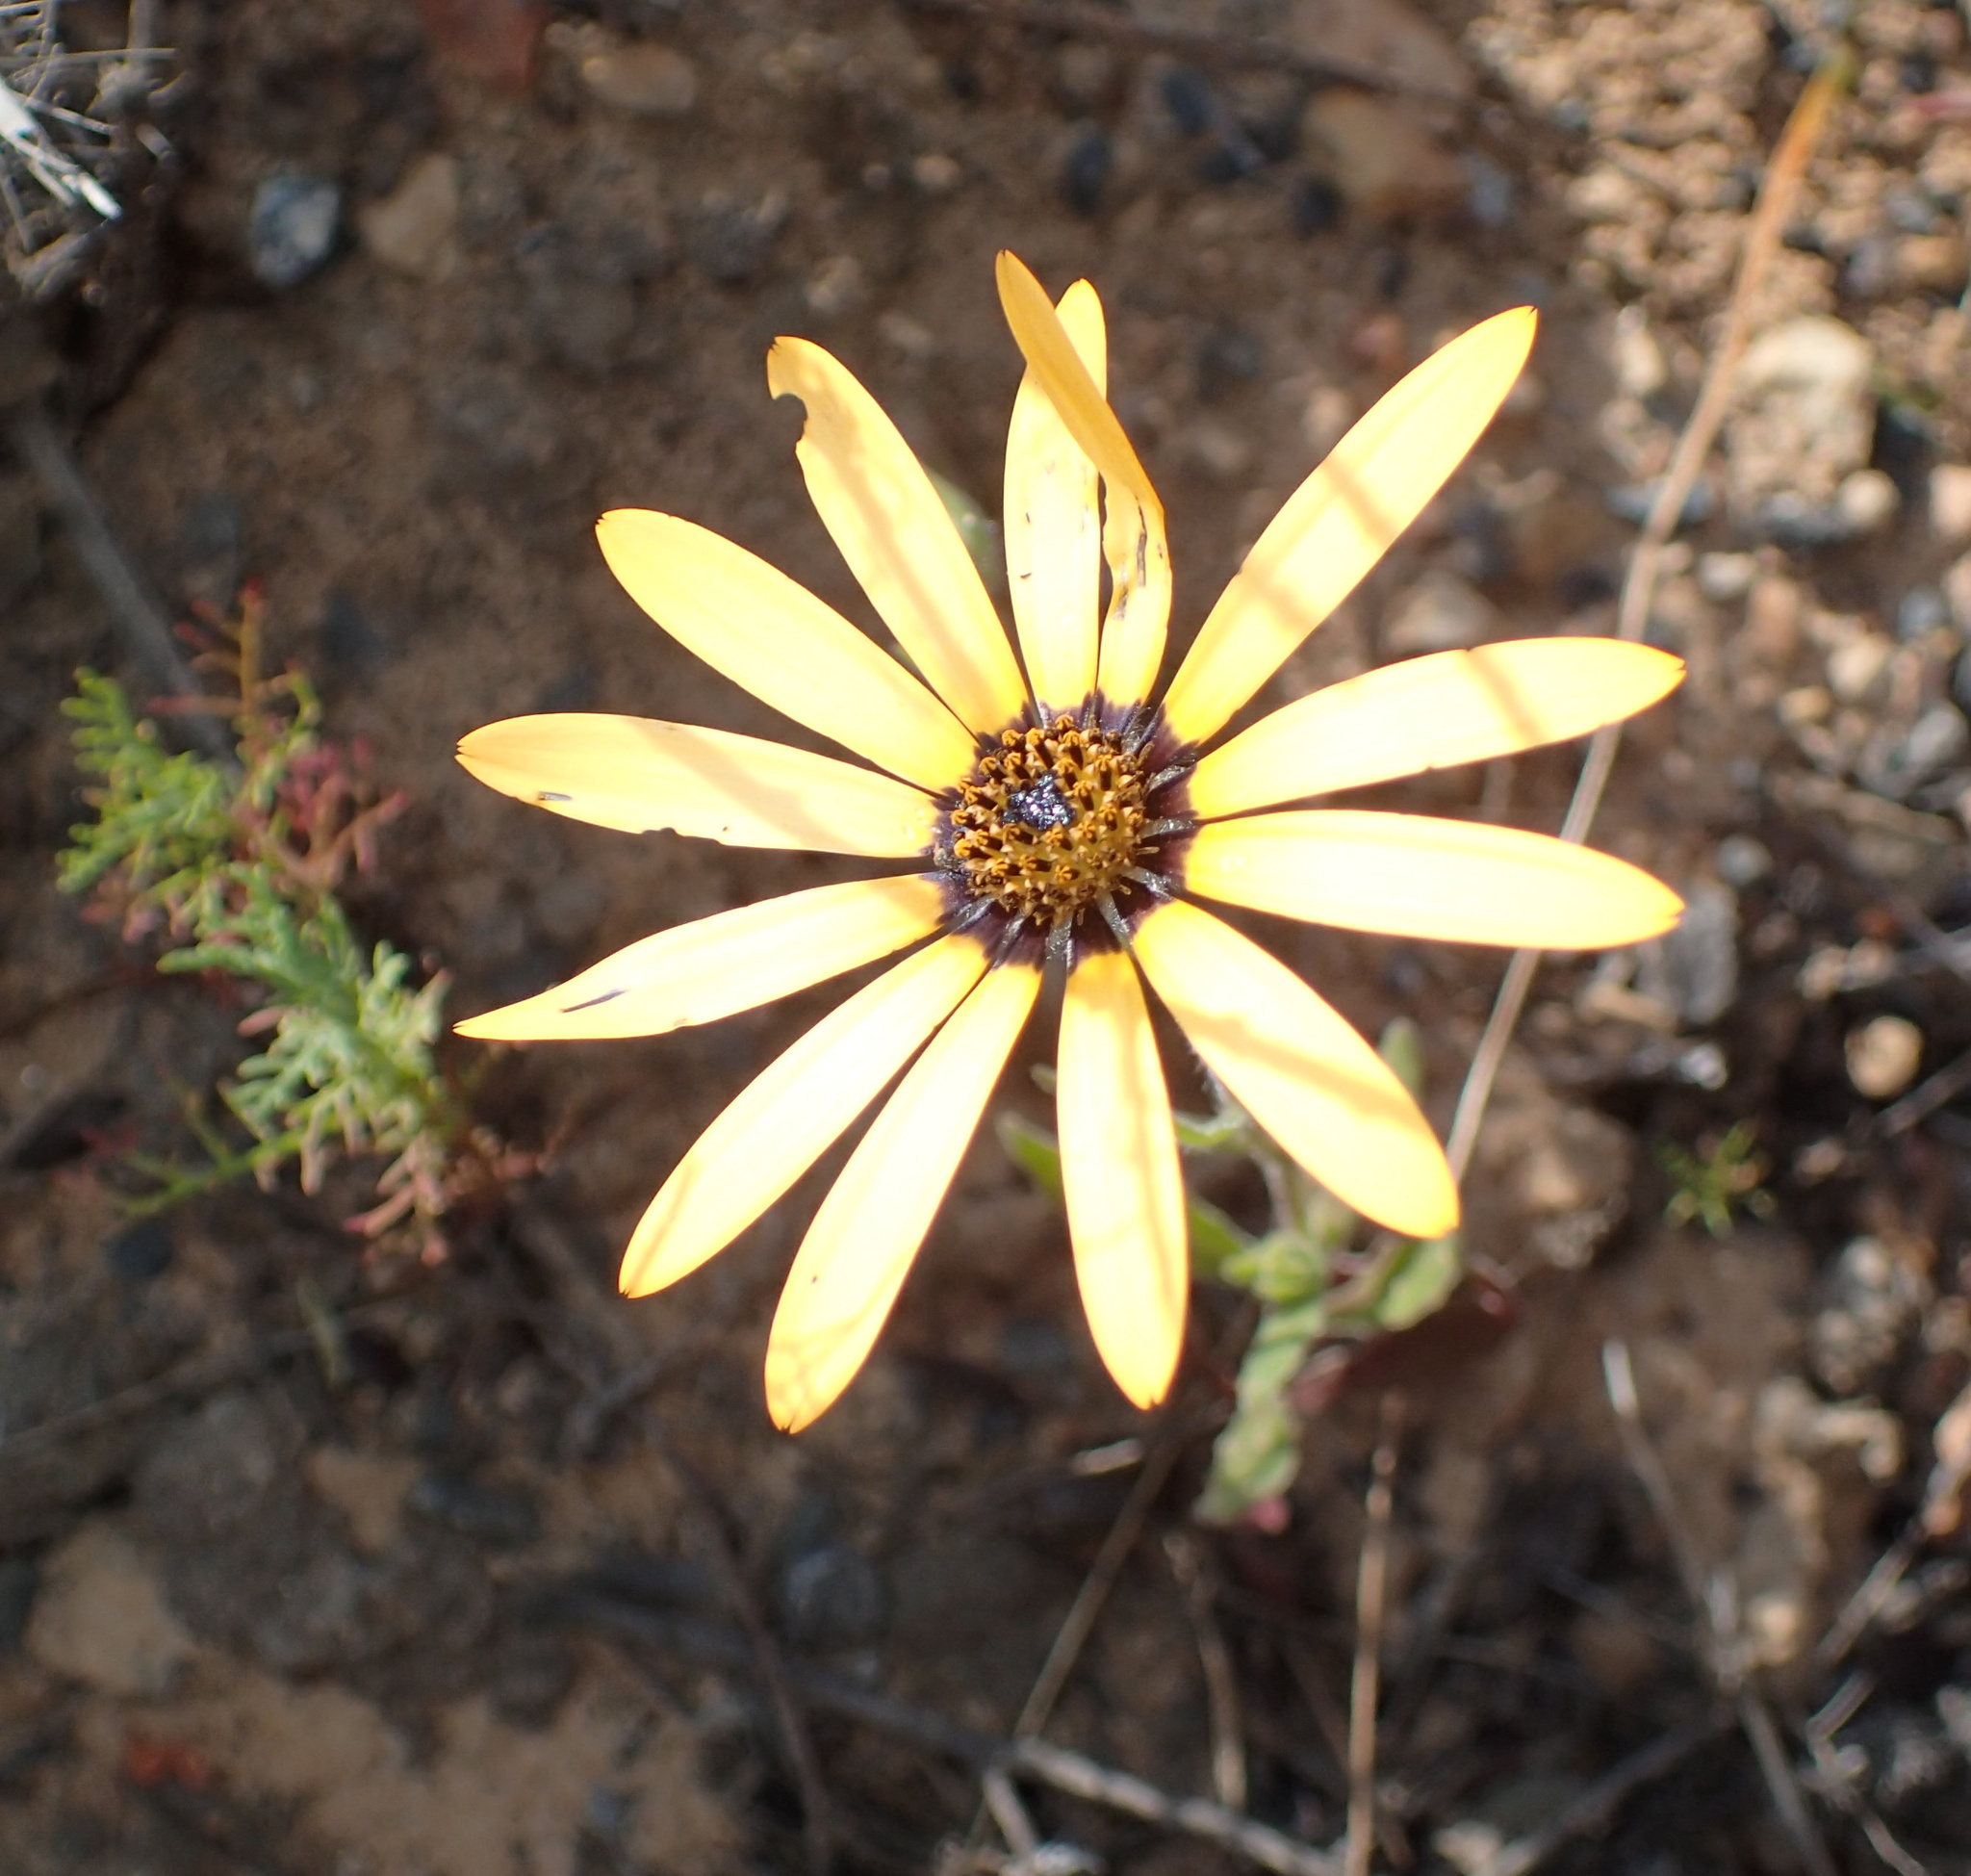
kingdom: Plantae
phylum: Tracheophyta
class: Magnoliopsida
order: Asterales
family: Asteraceae
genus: Dimorphotheca
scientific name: Dimorphotheca sinuata
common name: Glandular cape marigold
